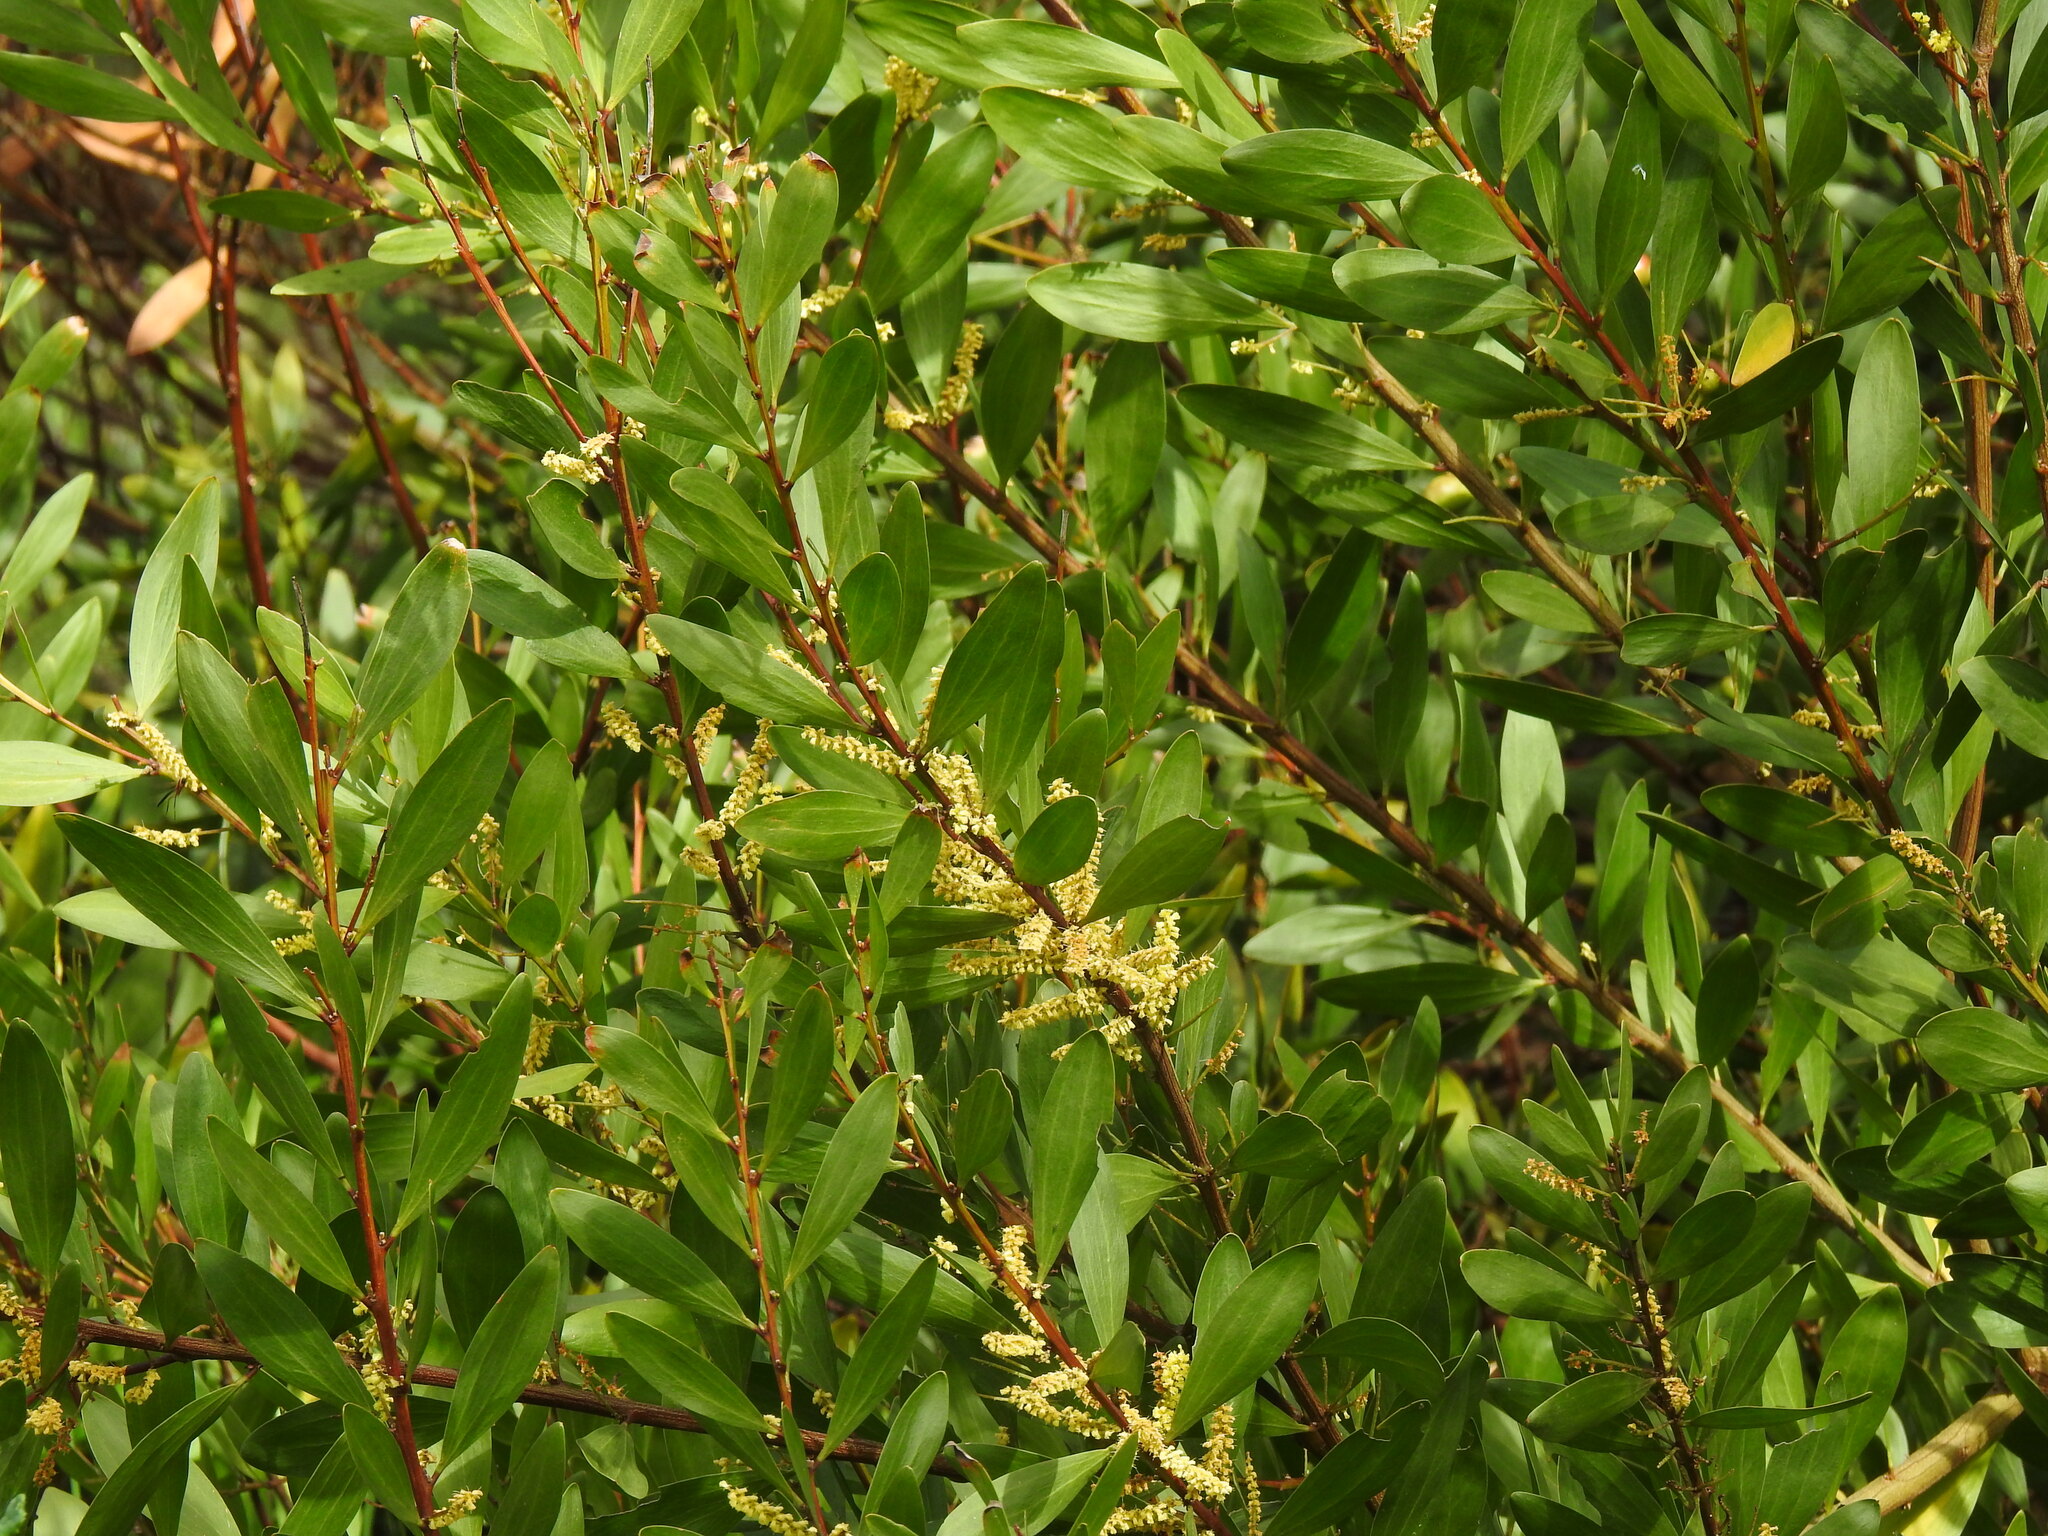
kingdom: Plantae
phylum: Tracheophyta
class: Magnoliopsida
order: Fabales
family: Fabaceae
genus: Acacia
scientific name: Acacia longifolia
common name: Sydney golden wattle
